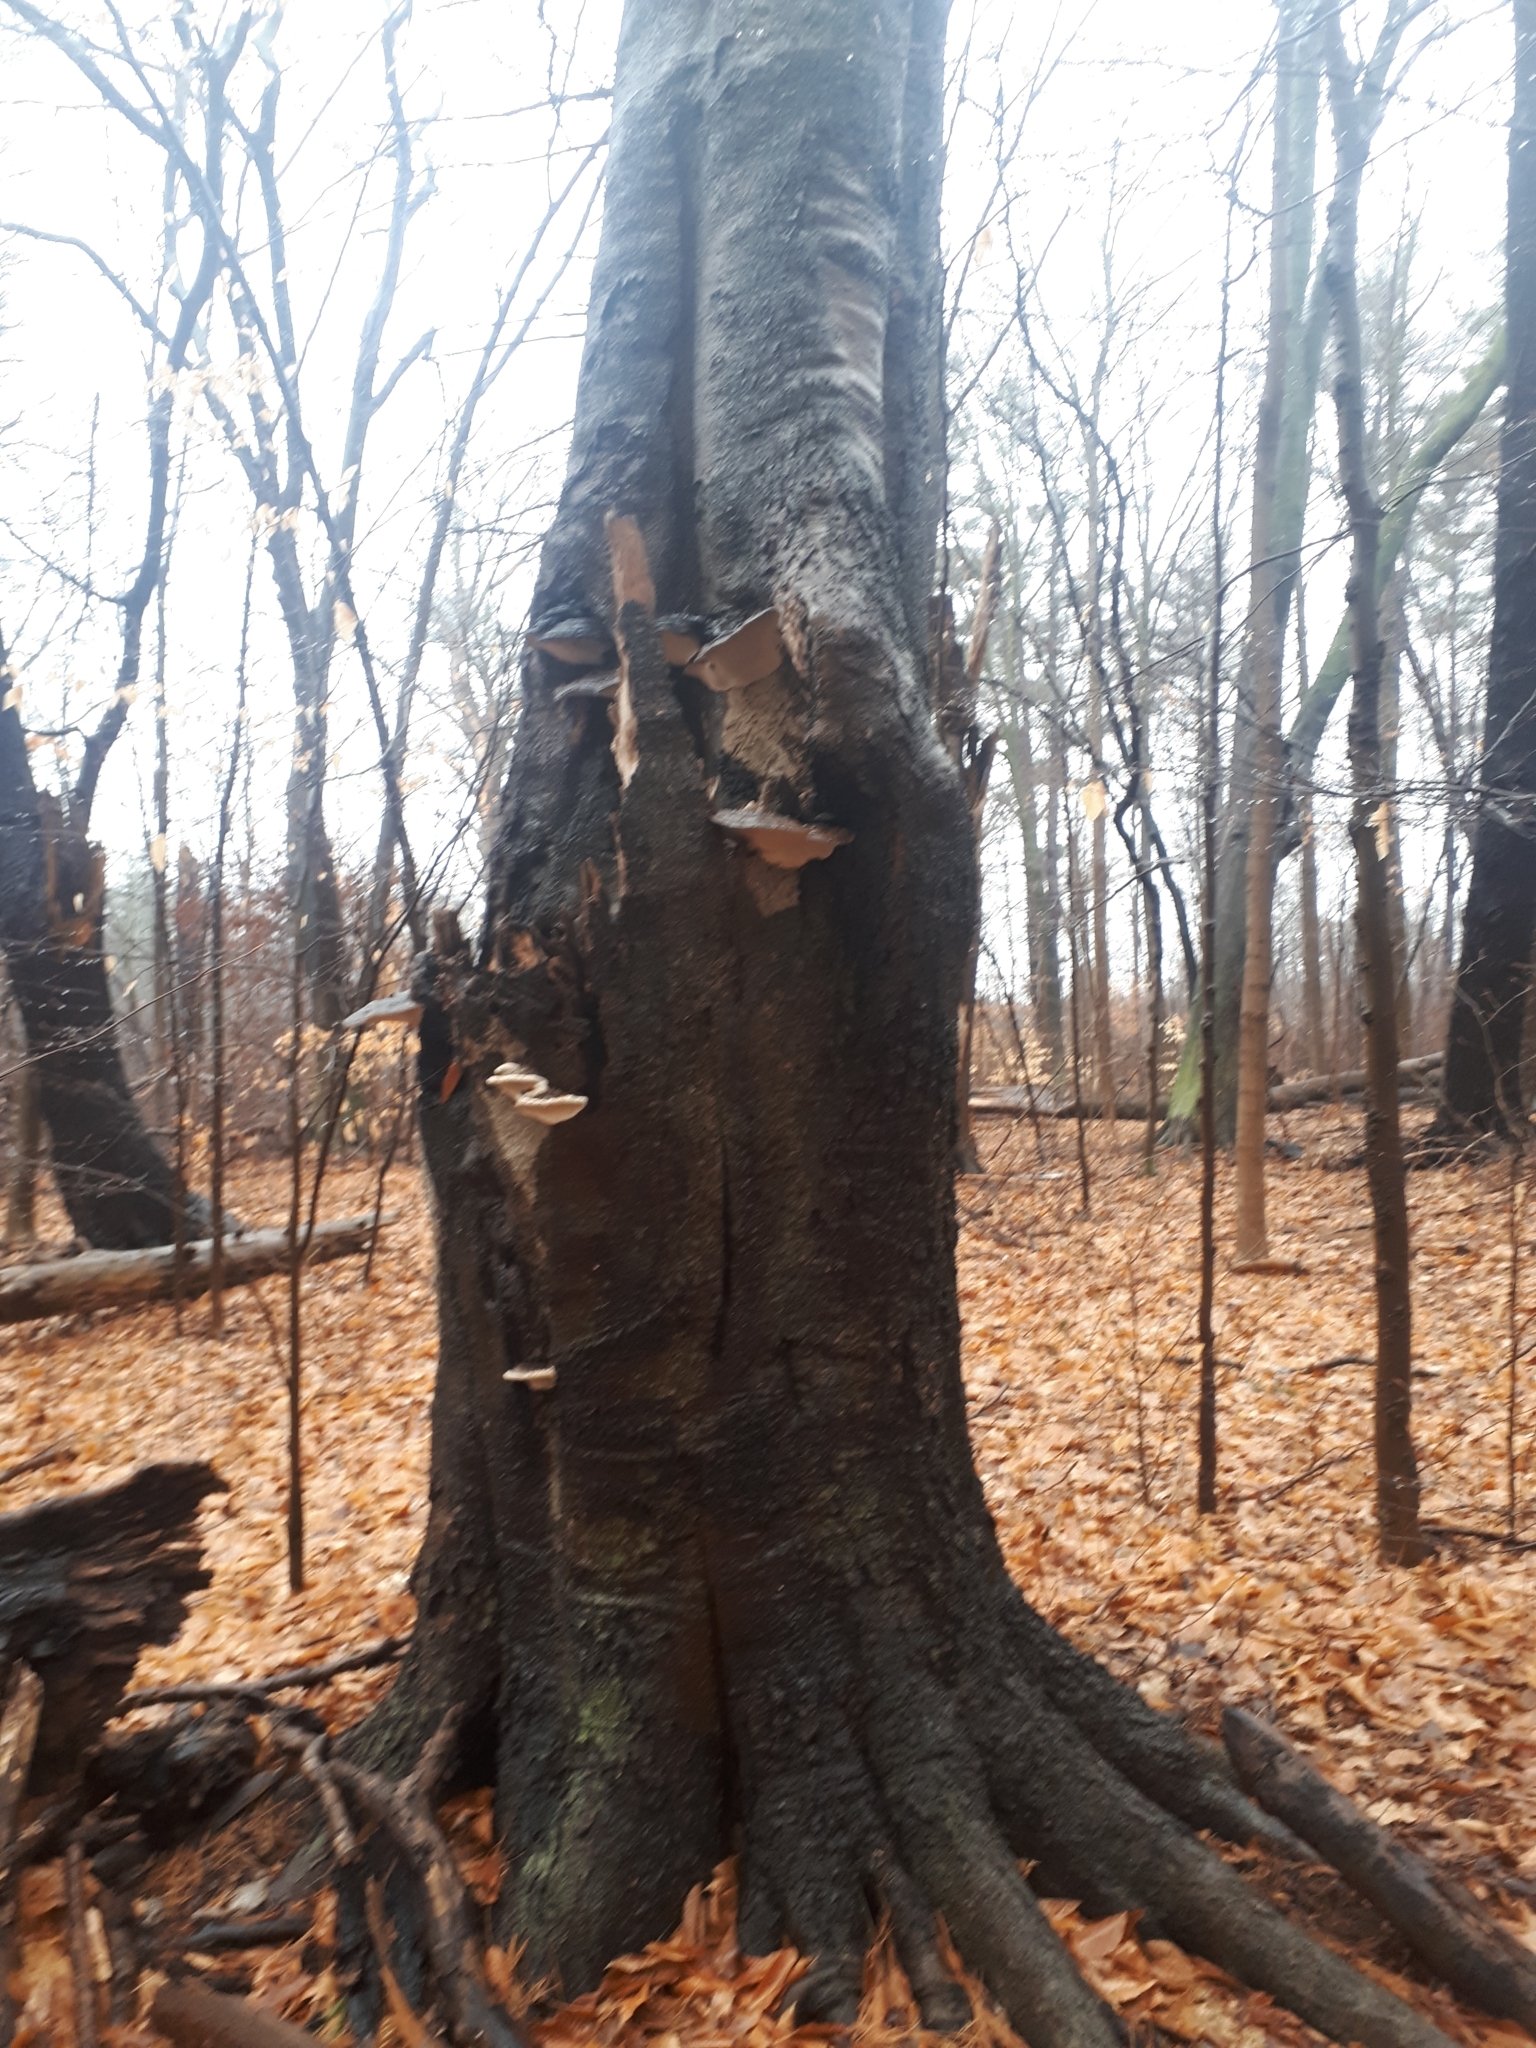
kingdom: Plantae
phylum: Tracheophyta
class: Magnoliopsida
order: Fagales
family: Fagaceae
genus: Fagus
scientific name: Fagus grandifolia
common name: American beech
